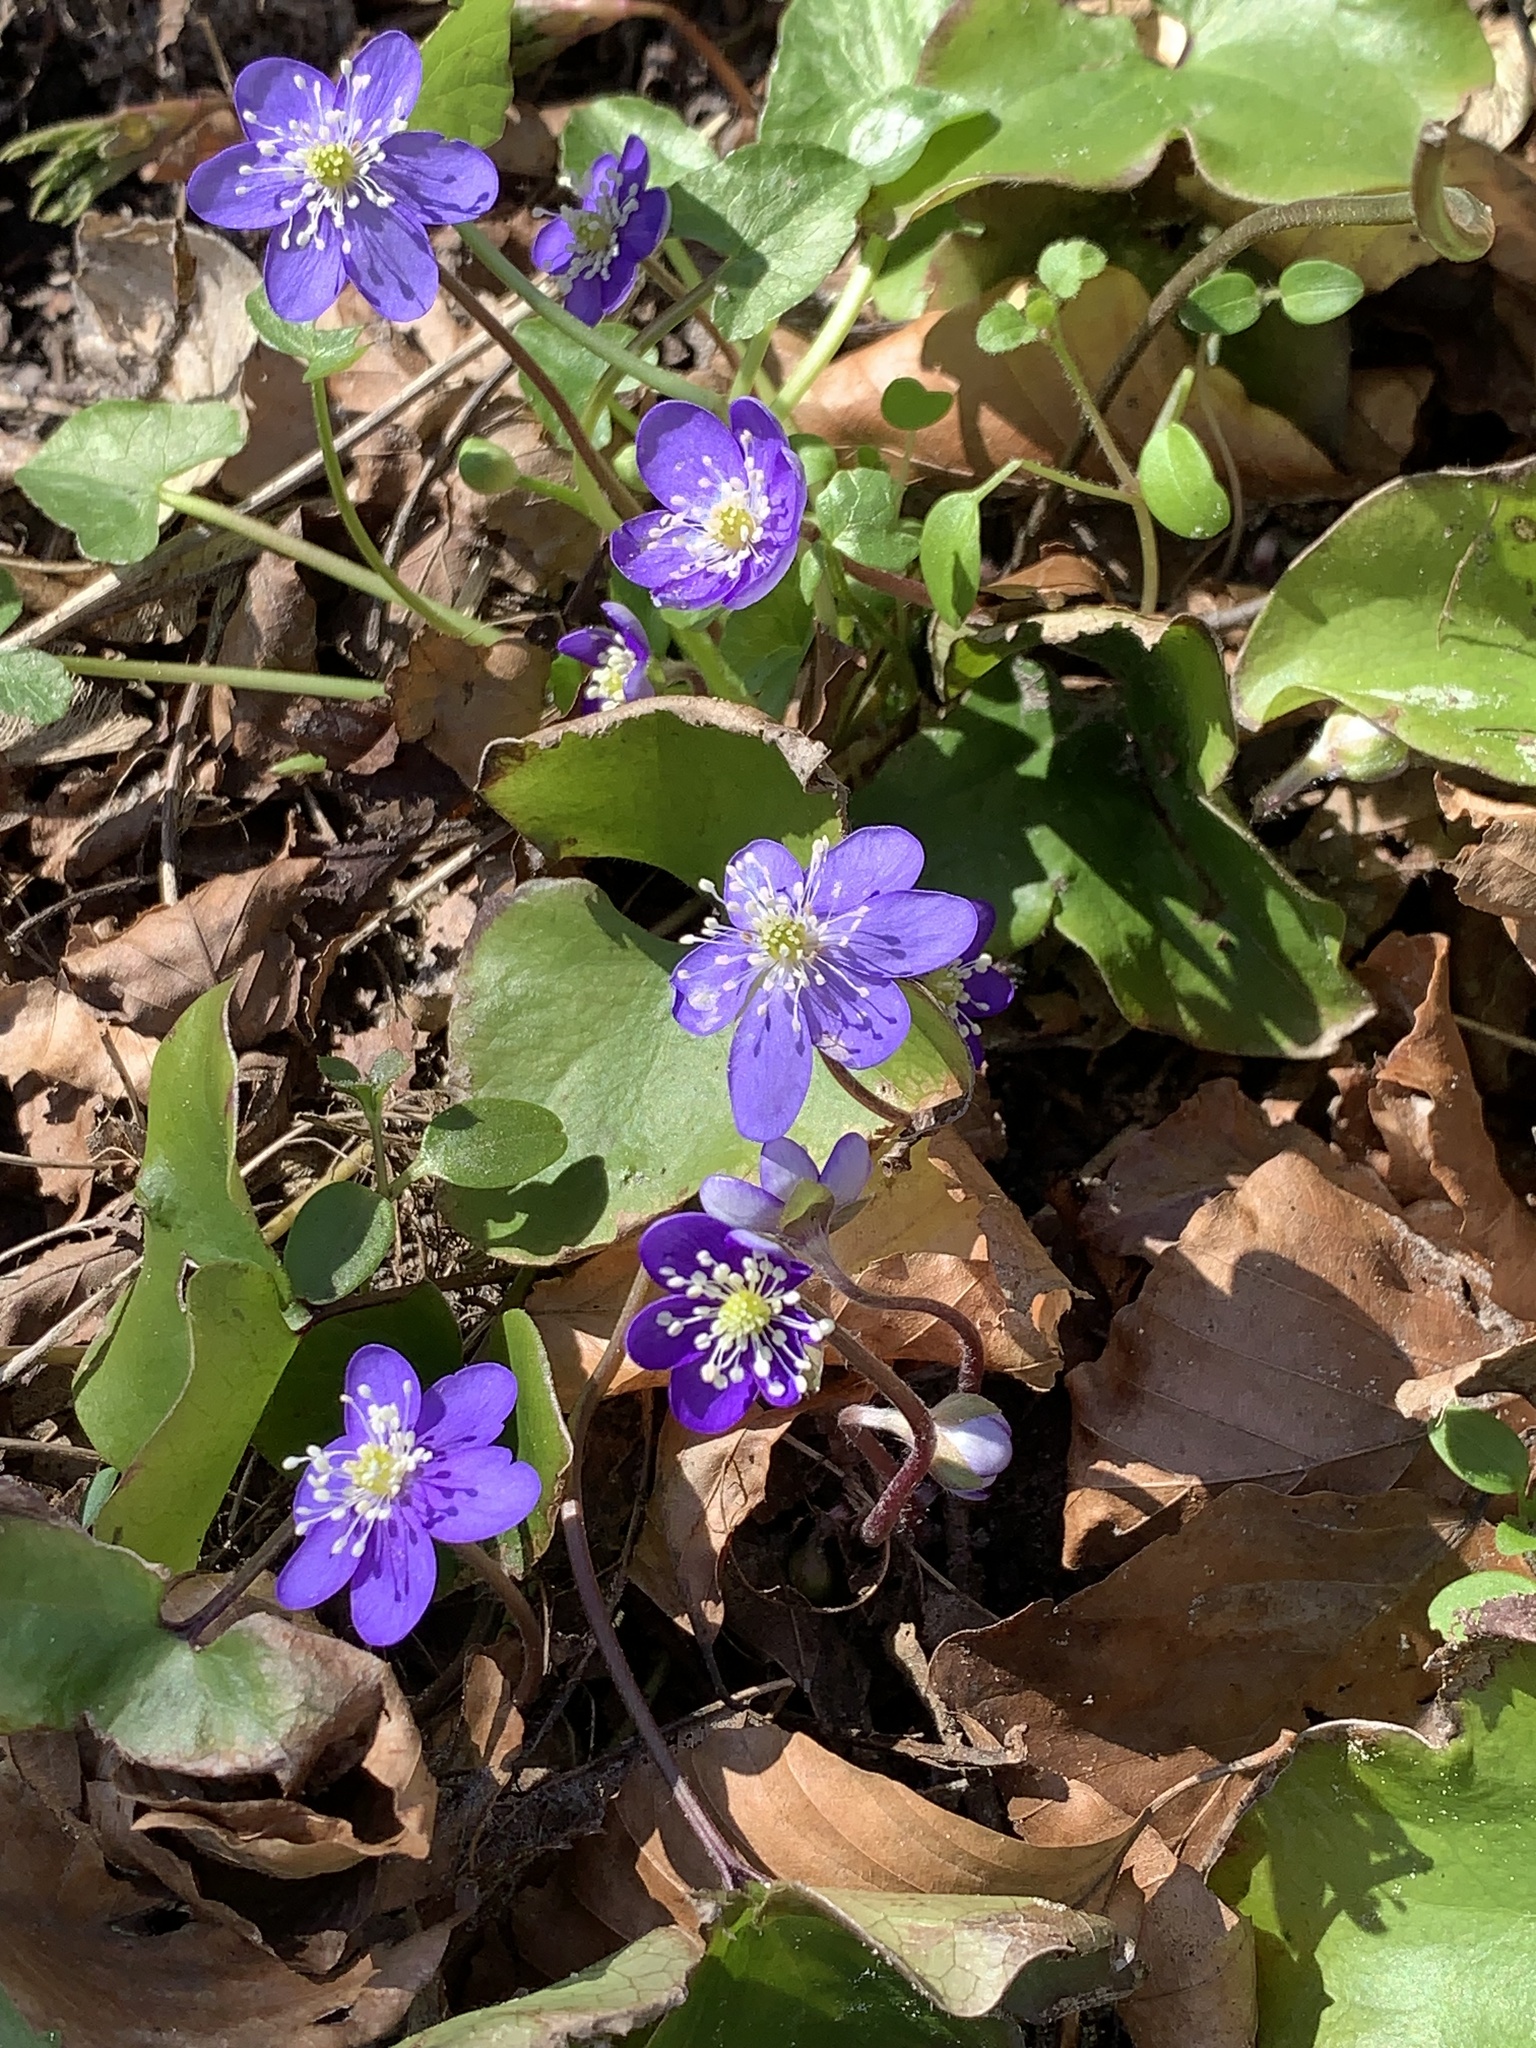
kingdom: Plantae
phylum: Tracheophyta
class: Magnoliopsida
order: Ranunculales
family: Ranunculaceae
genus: Hepatica
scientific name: Hepatica nobilis
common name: Liverleaf
